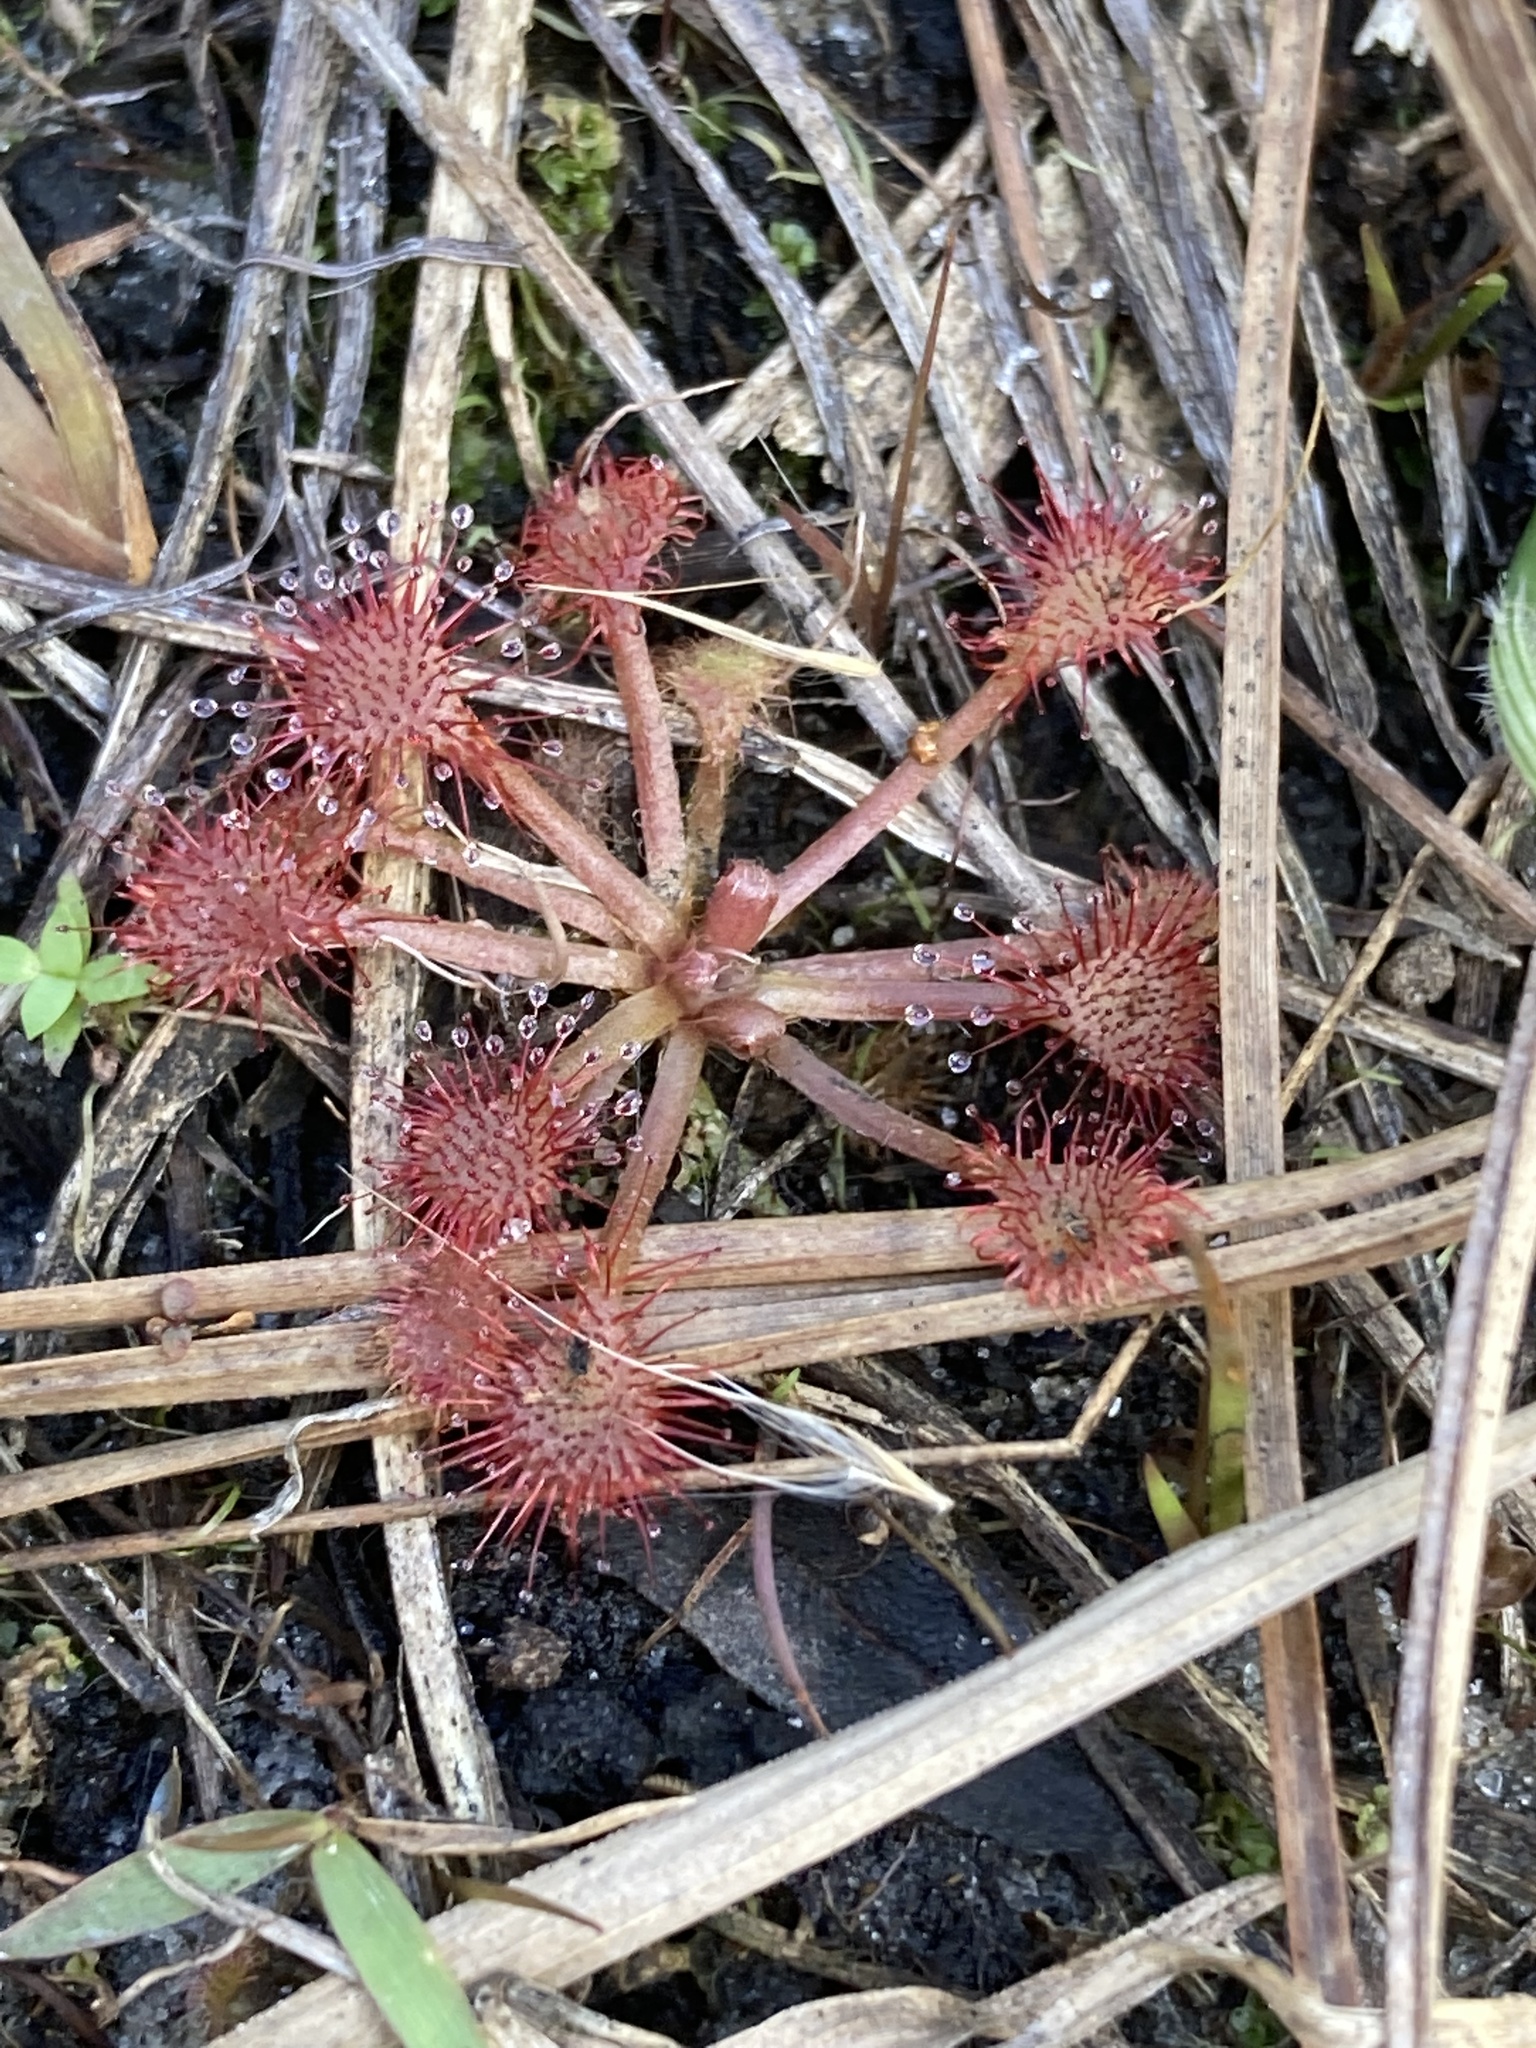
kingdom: Plantae
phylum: Tracheophyta
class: Magnoliopsida
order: Caryophyllales
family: Droseraceae
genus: Drosera
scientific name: Drosera capillaris
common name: Pink sundew
